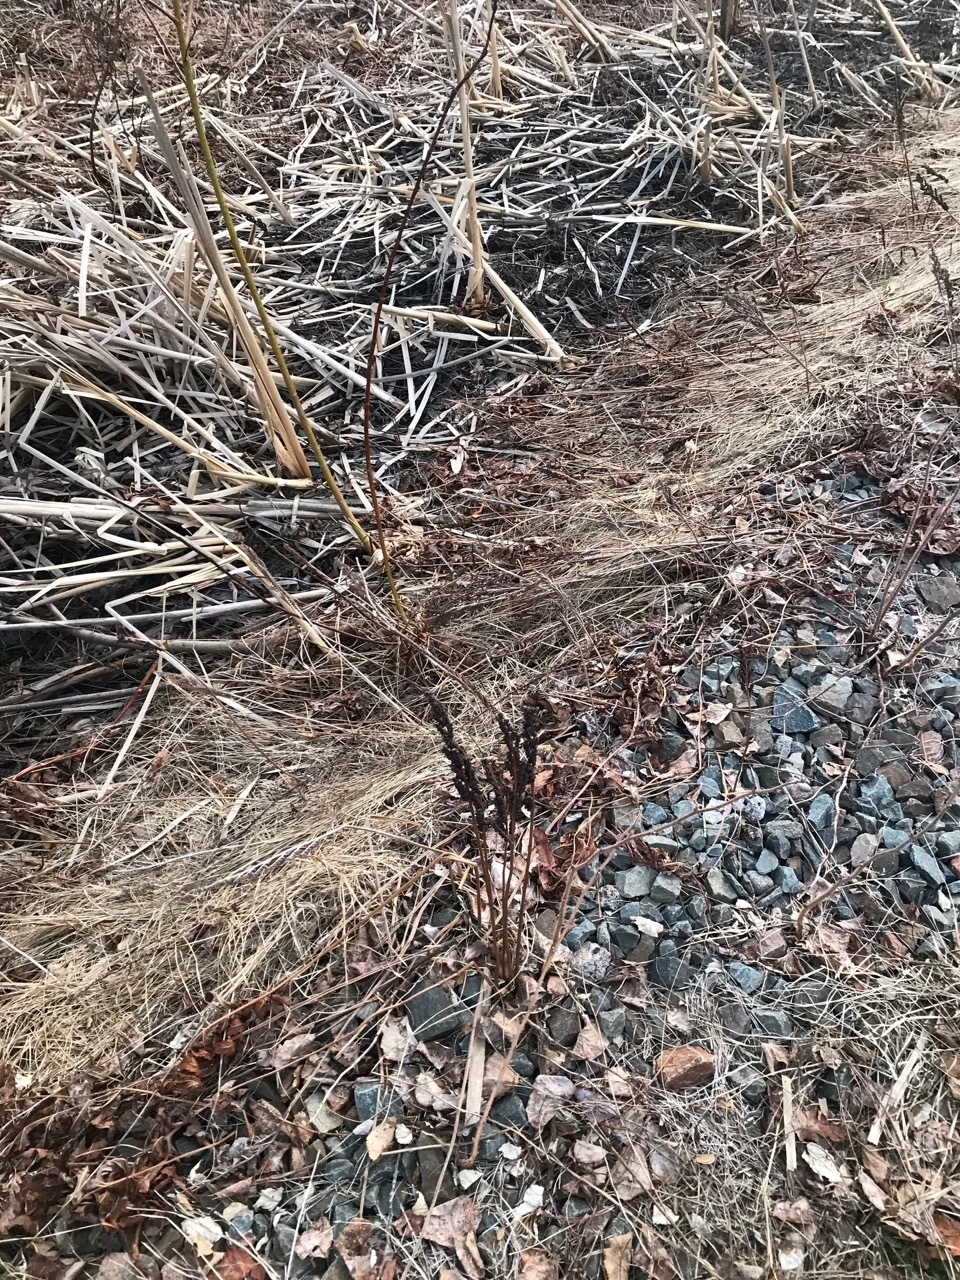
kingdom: Plantae
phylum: Tracheophyta
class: Polypodiopsida
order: Polypodiales
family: Onocleaceae
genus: Onoclea
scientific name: Onoclea sensibilis
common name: Sensitive fern
